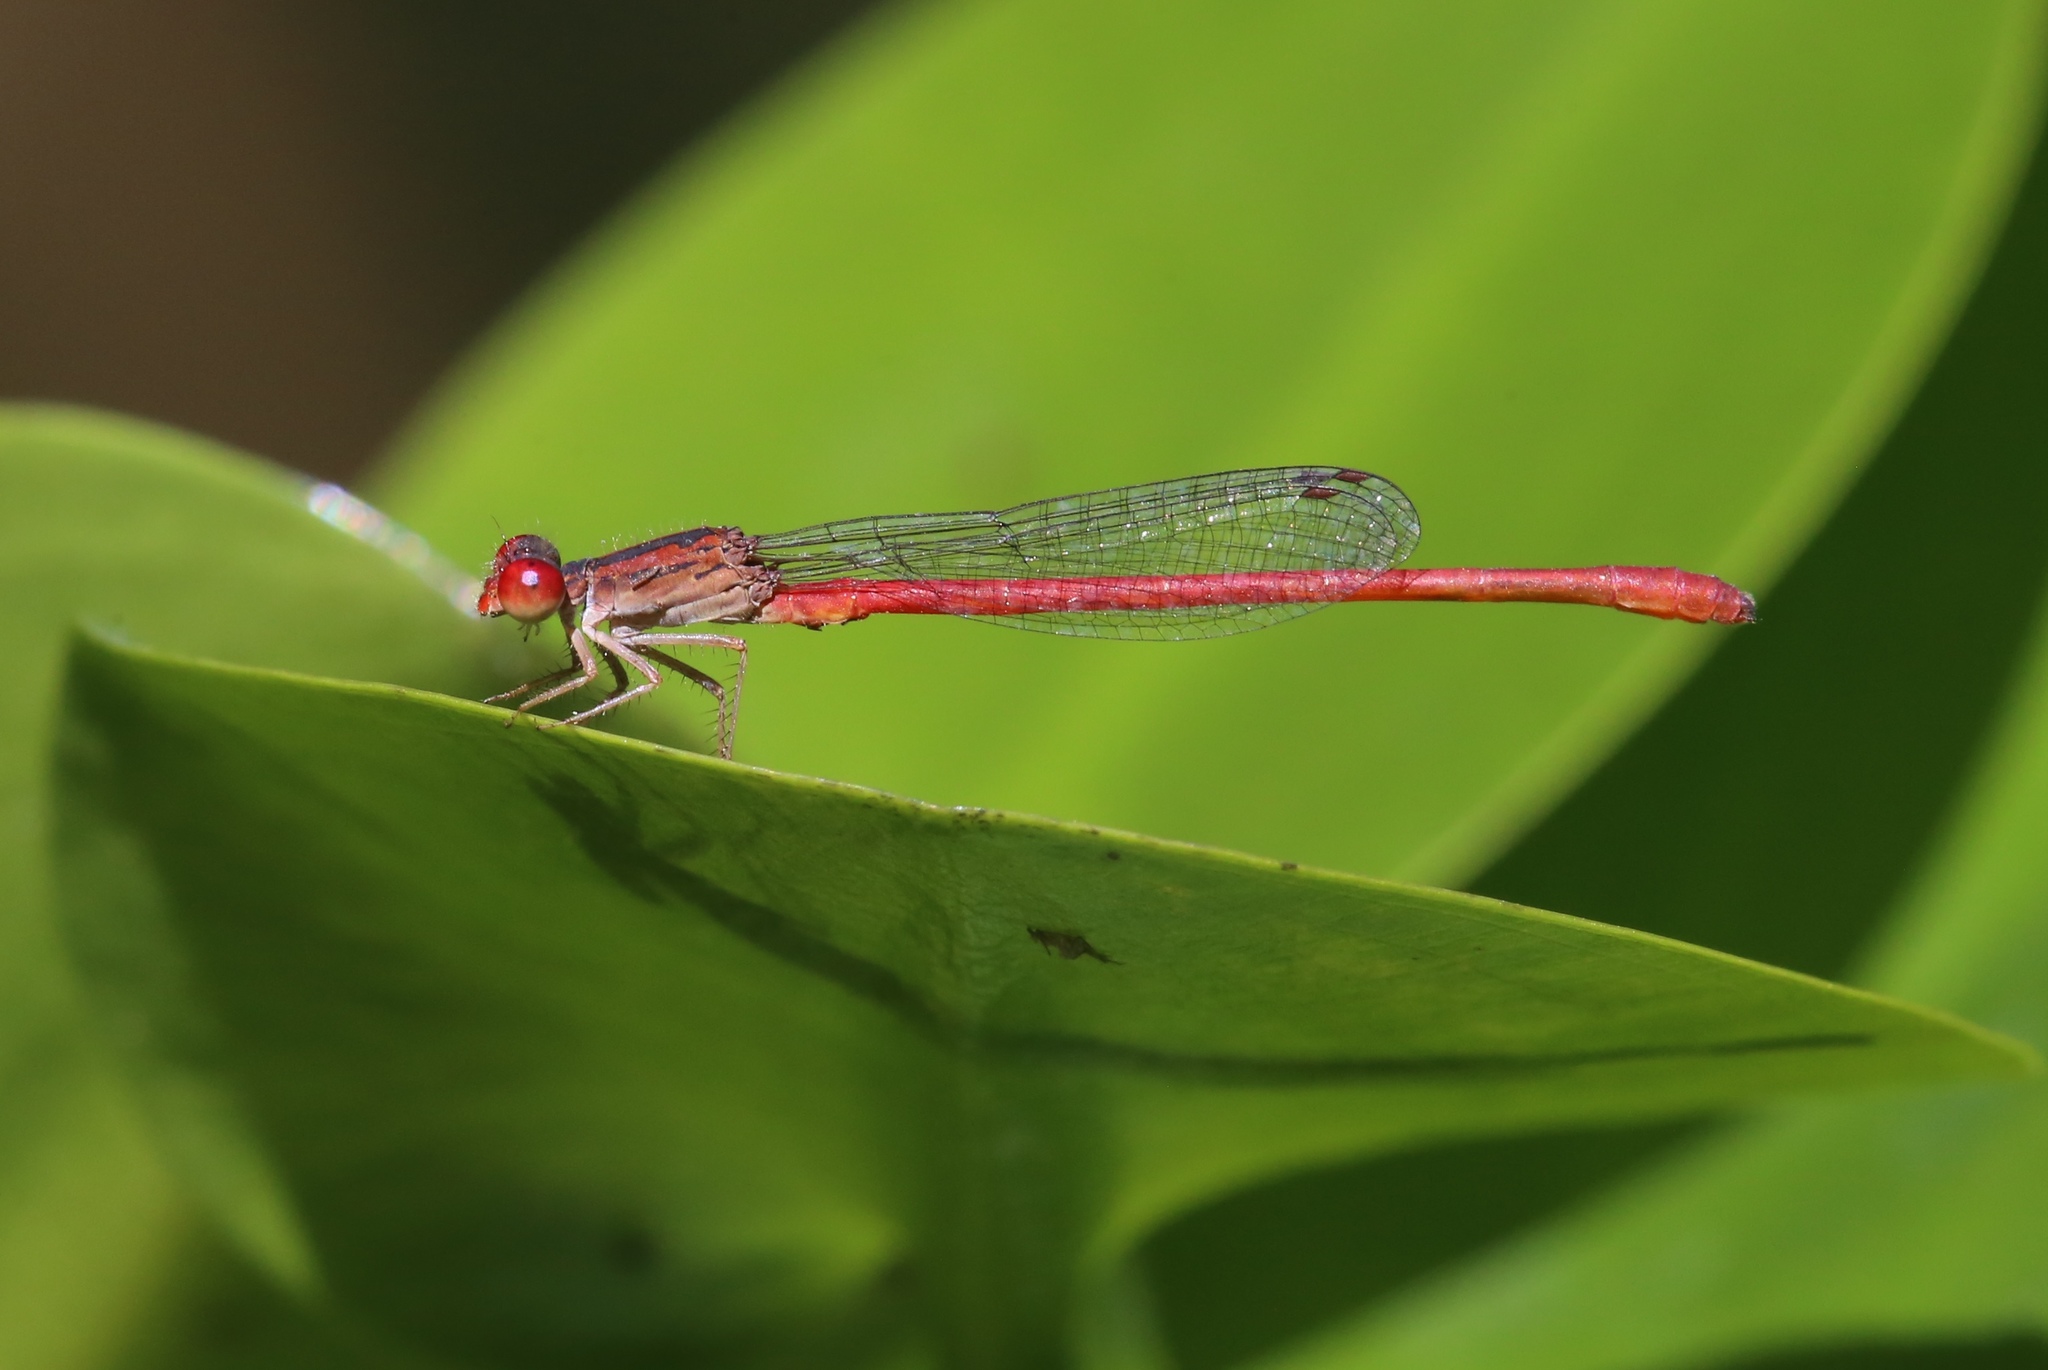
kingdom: Animalia
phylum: Arthropoda
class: Insecta
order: Odonata
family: Coenagrionidae
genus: Telebasis
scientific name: Telebasis salva
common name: Desert firetail
